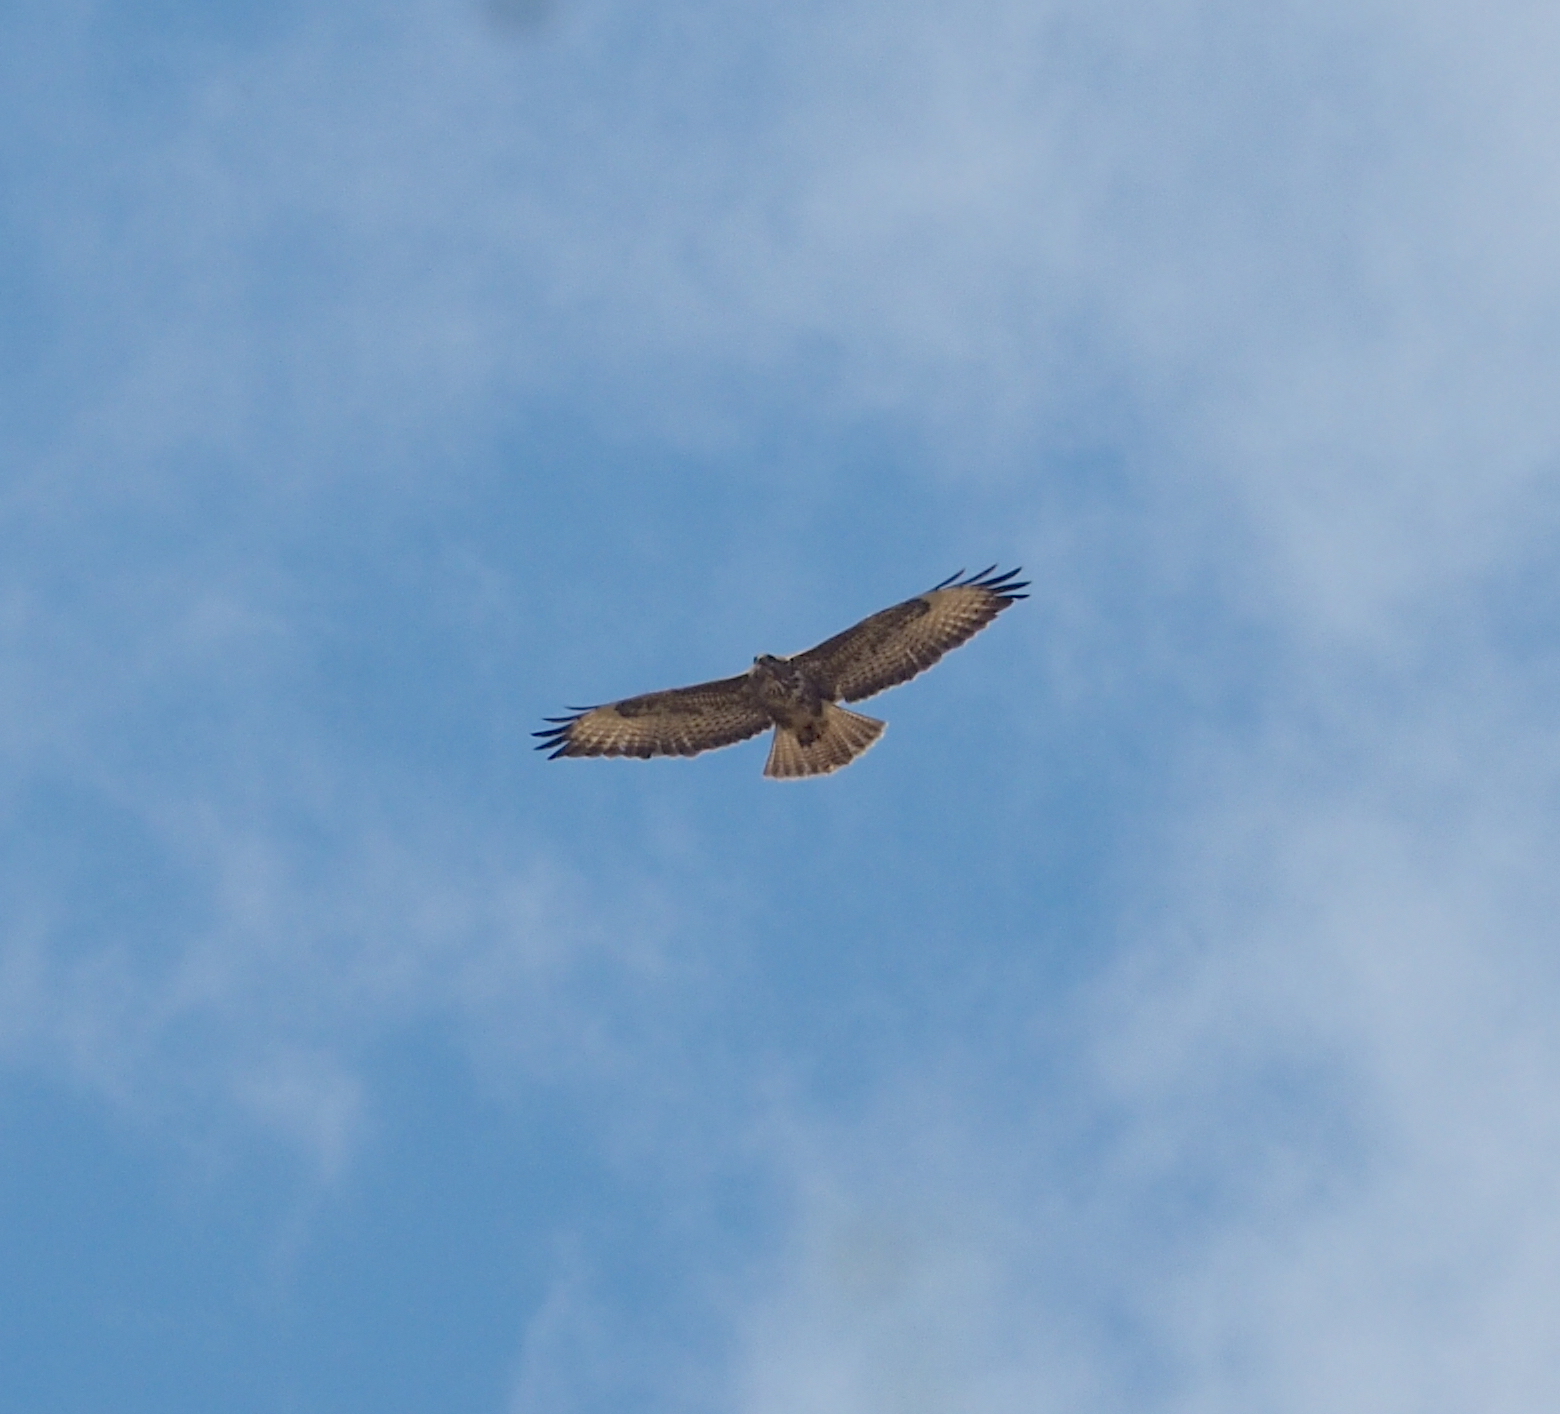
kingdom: Animalia
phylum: Chordata
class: Aves
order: Accipitriformes
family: Accipitridae
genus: Buteo
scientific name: Buteo buteo
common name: Common buzzard
